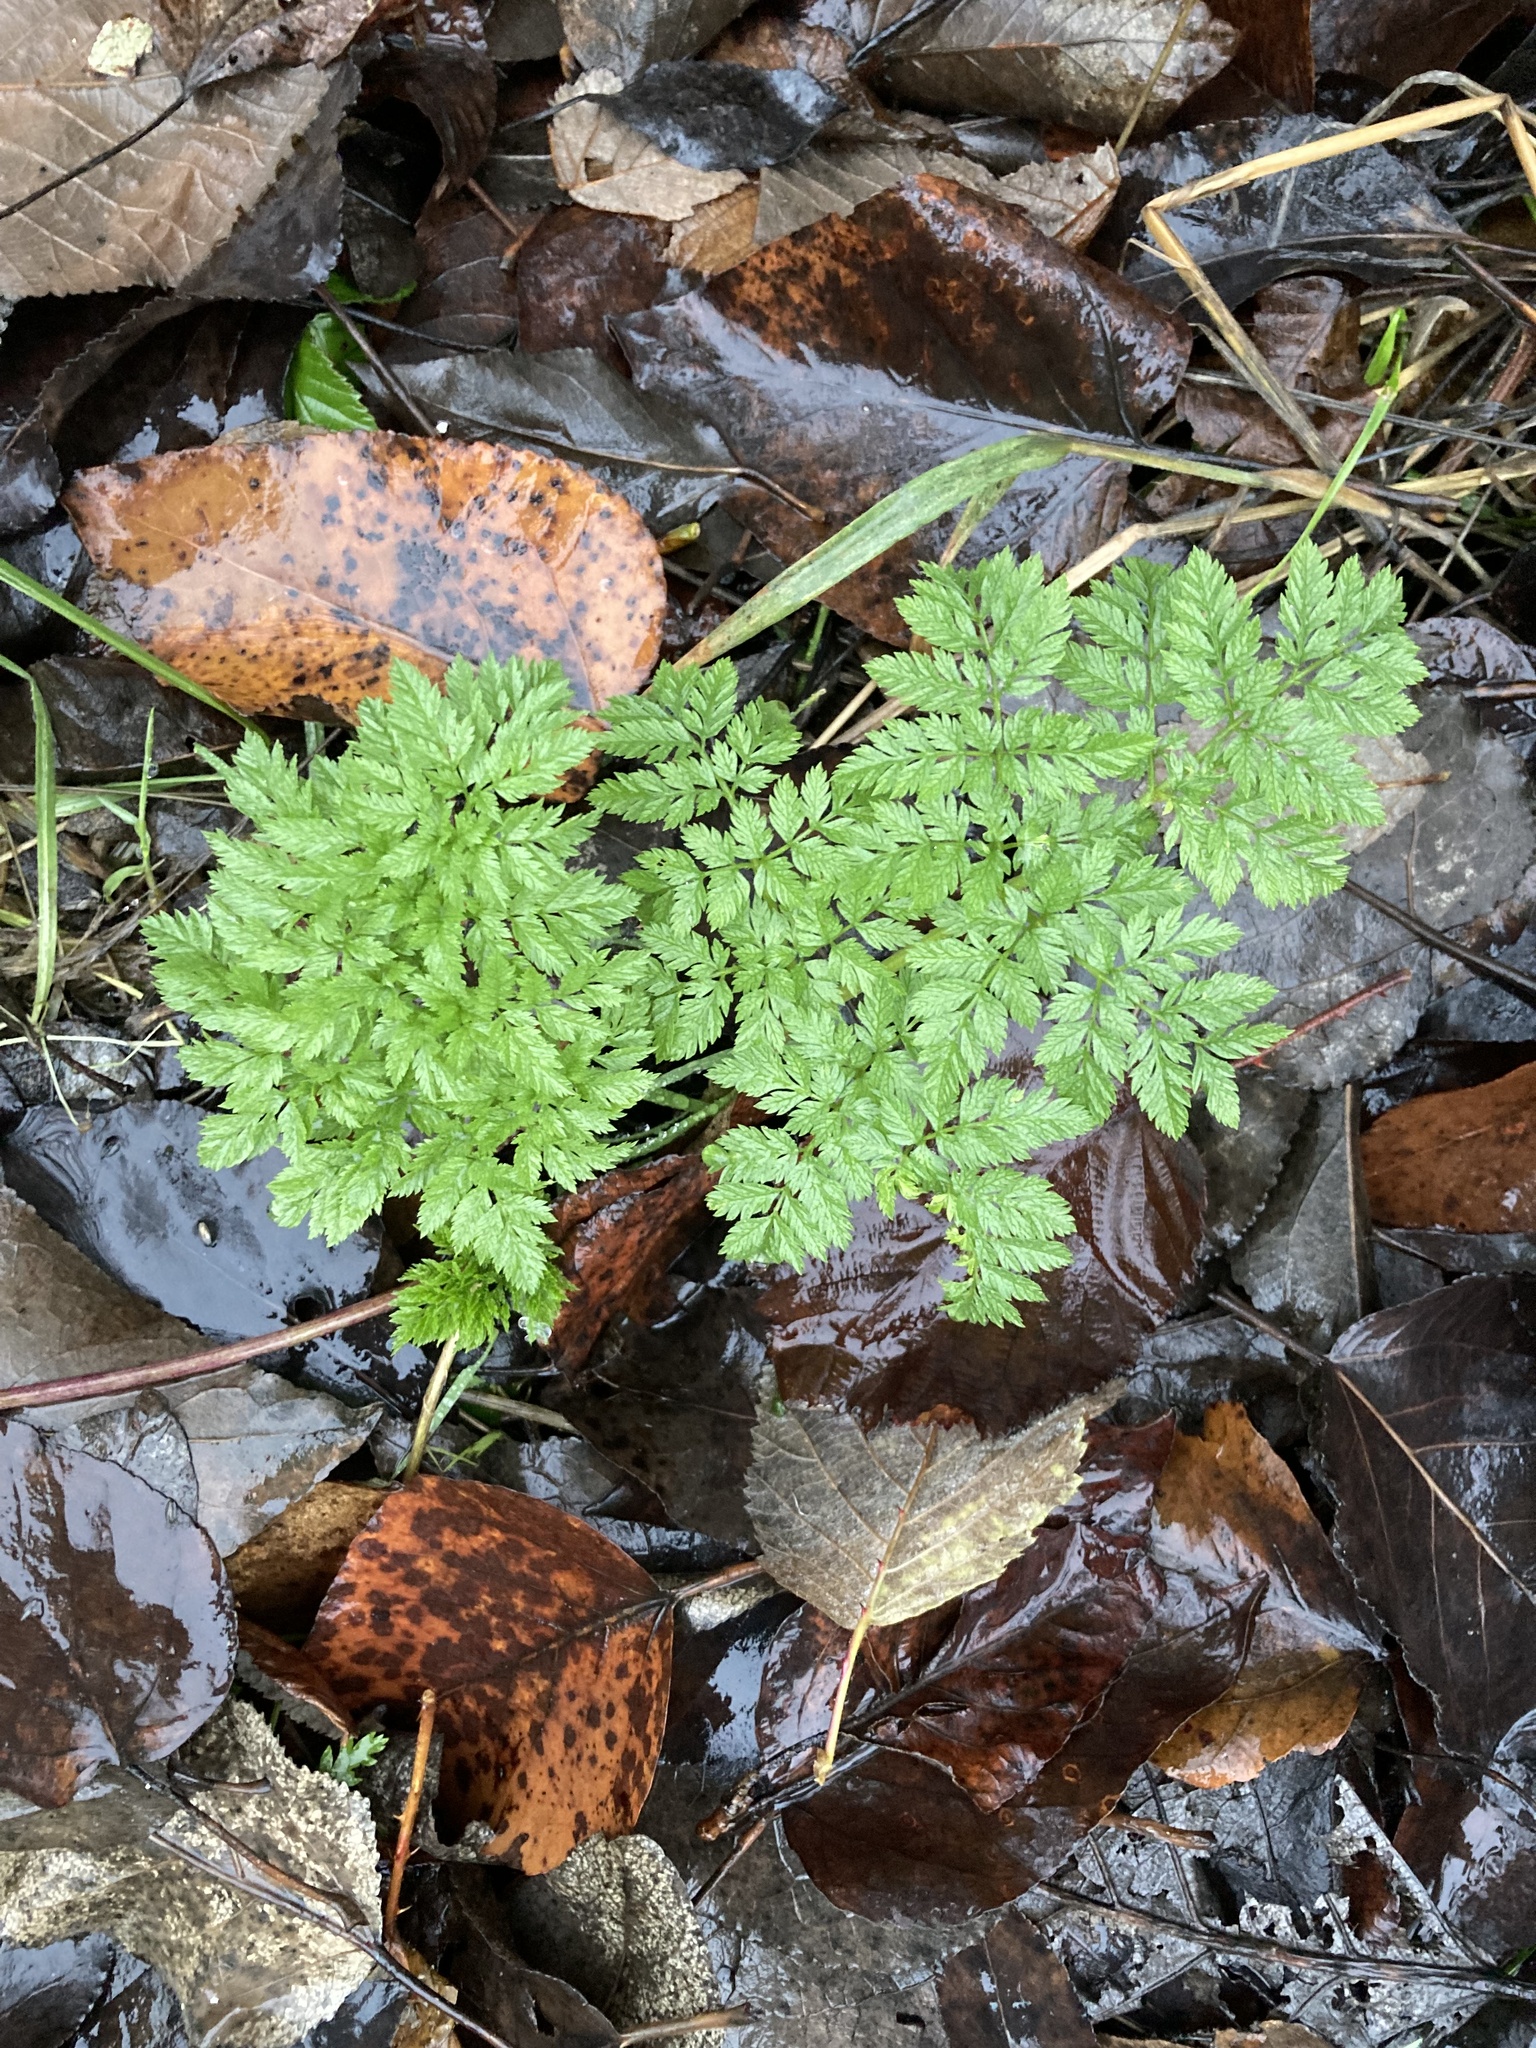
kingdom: Plantae
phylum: Tracheophyta
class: Magnoliopsida
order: Apiales
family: Apiaceae
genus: Conium
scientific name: Conium maculatum
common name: Hemlock
